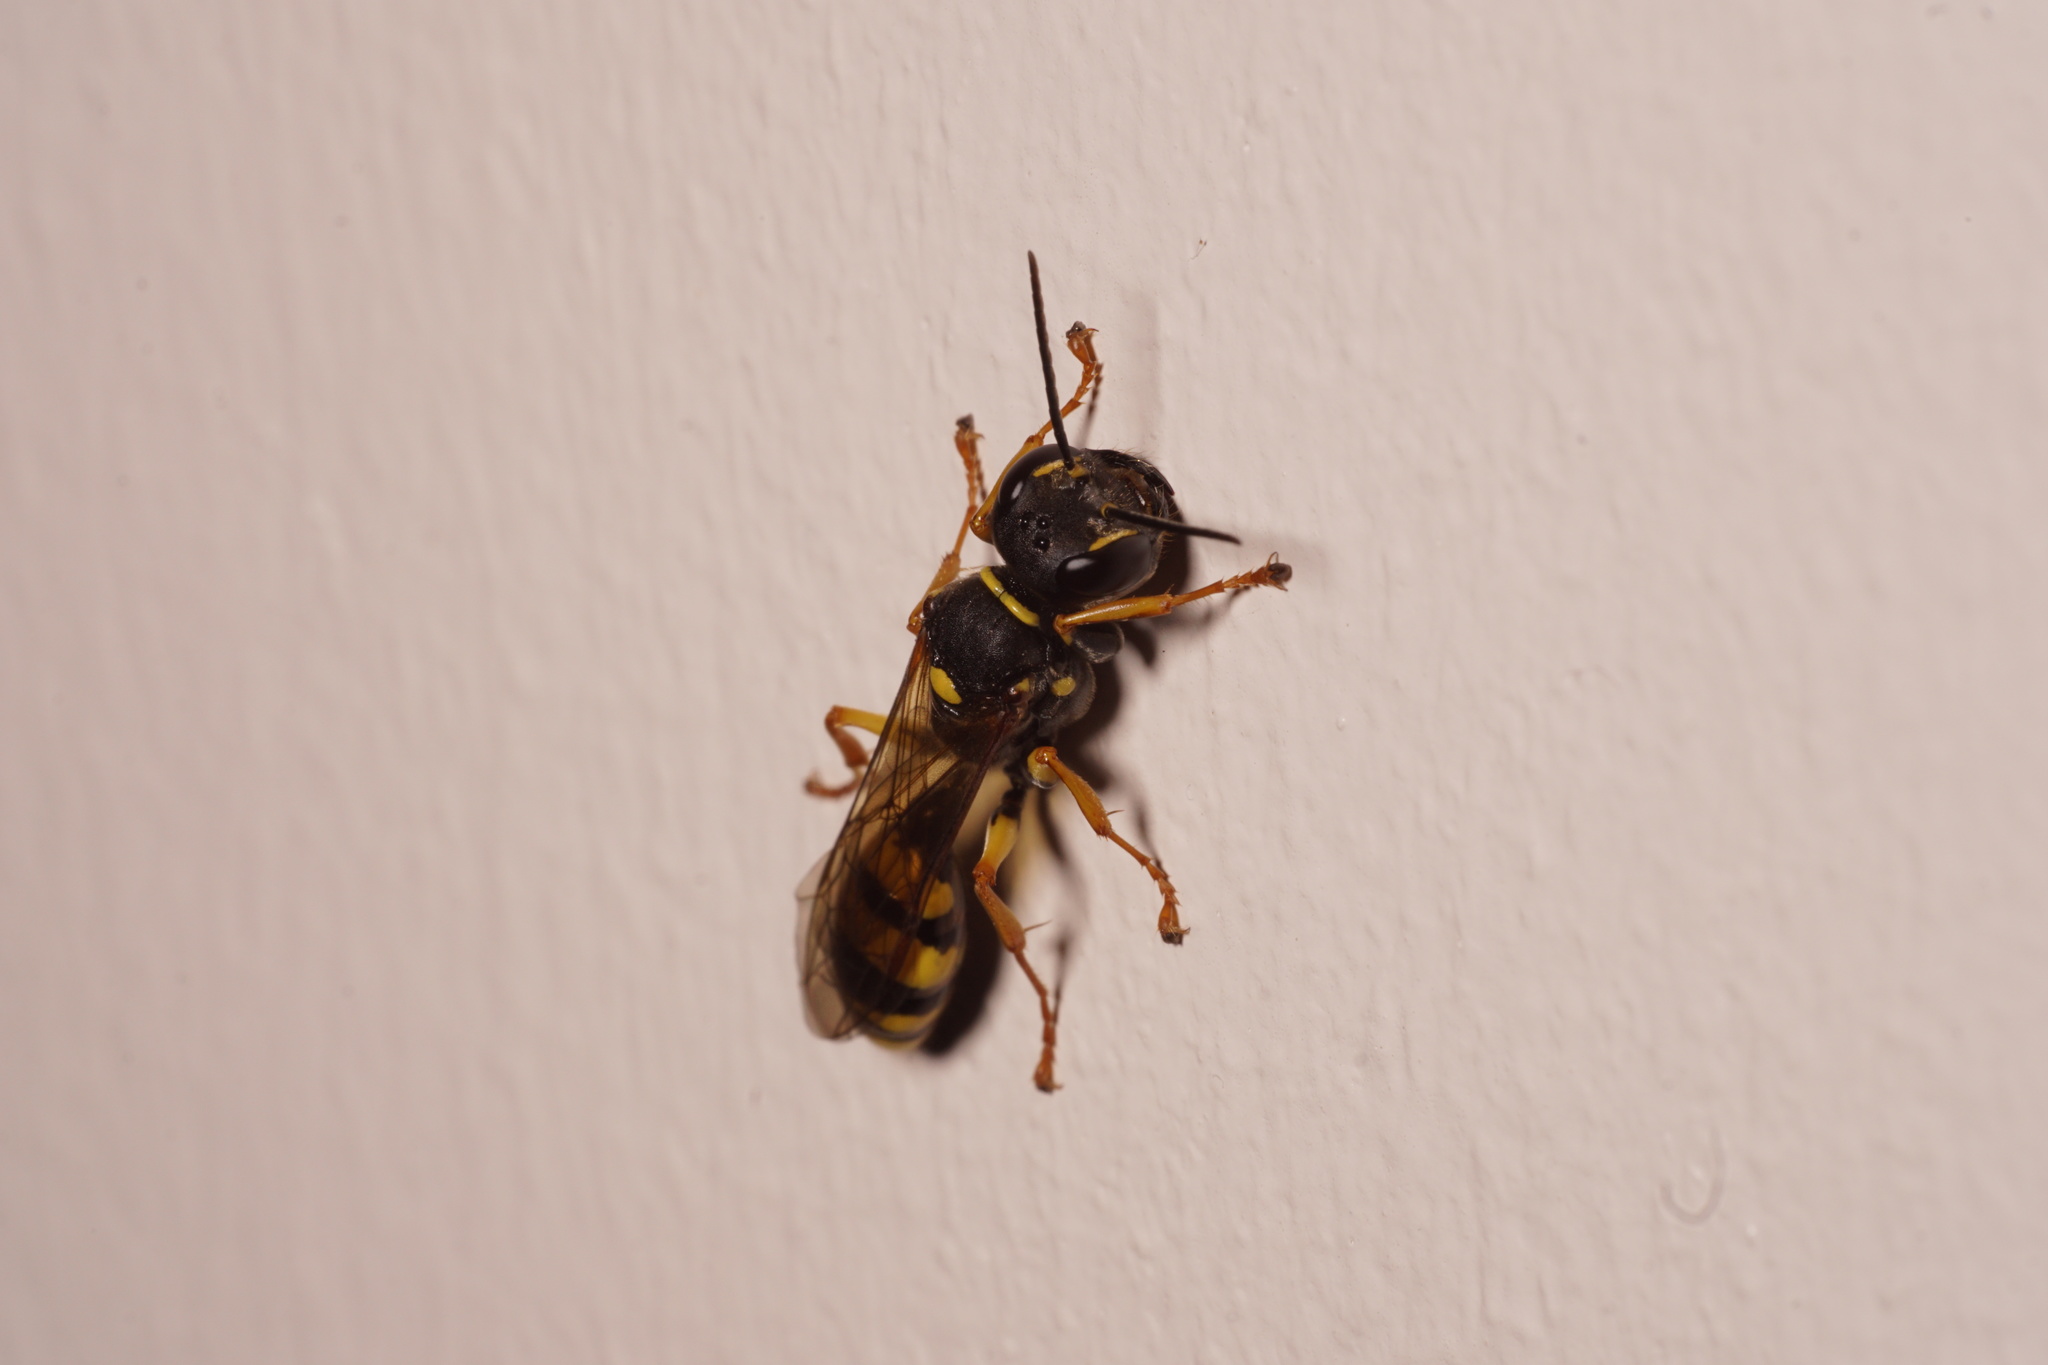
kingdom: Animalia
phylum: Arthropoda
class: Insecta
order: Hymenoptera
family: Crabronidae
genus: Mellinus
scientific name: Mellinus arvensis
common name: Field digger wasp
